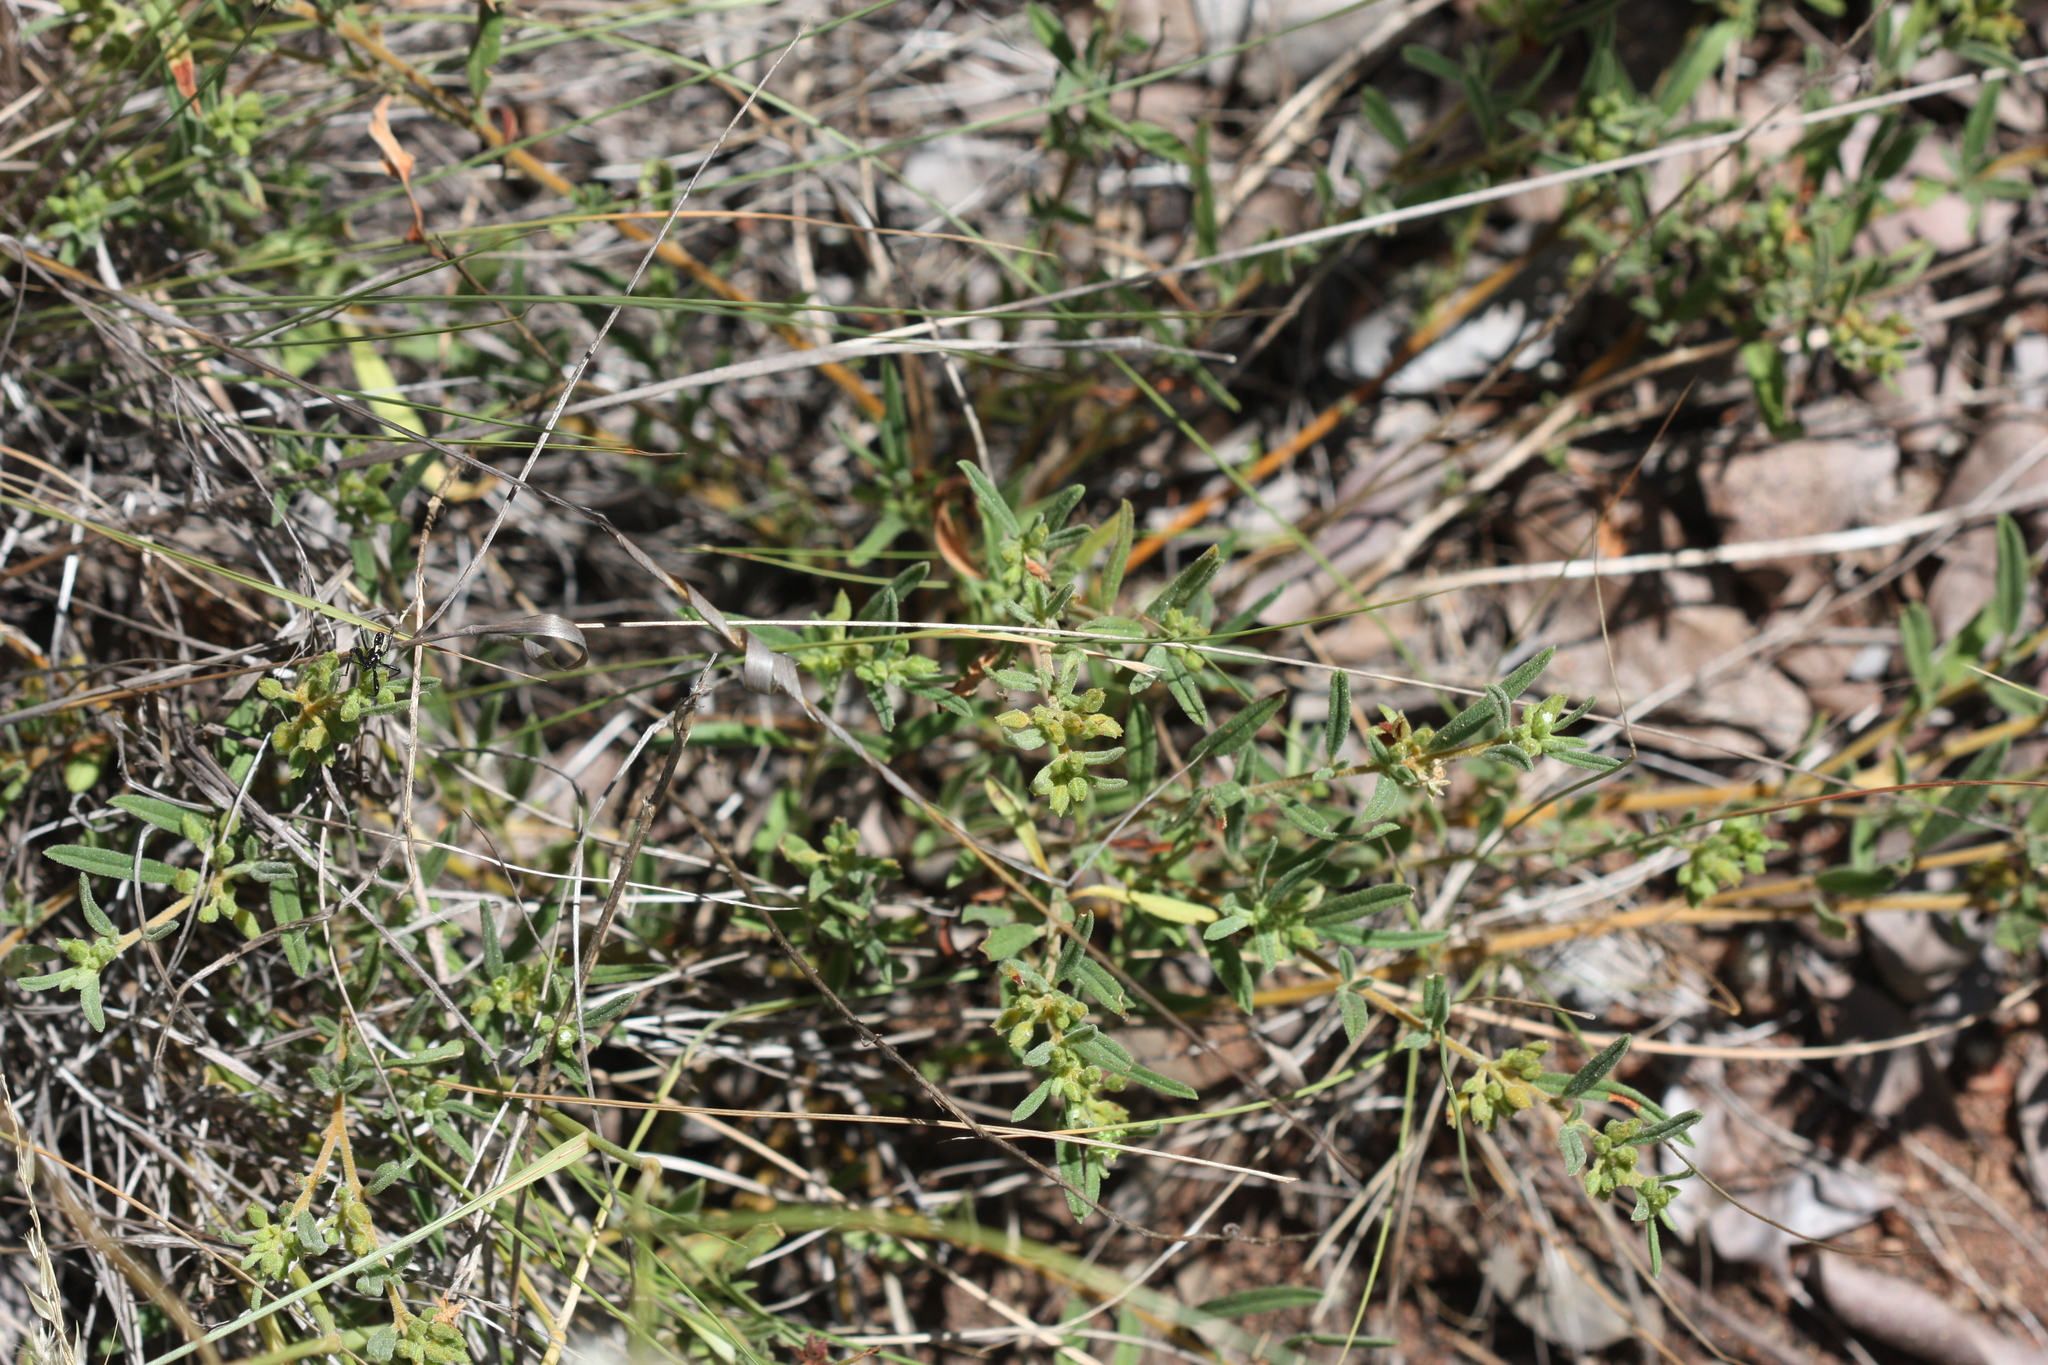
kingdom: Plantae
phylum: Tracheophyta
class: Magnoliopsida
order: Caryophyllales
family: Limeaceae
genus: Limeum
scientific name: Limeum viscosum
